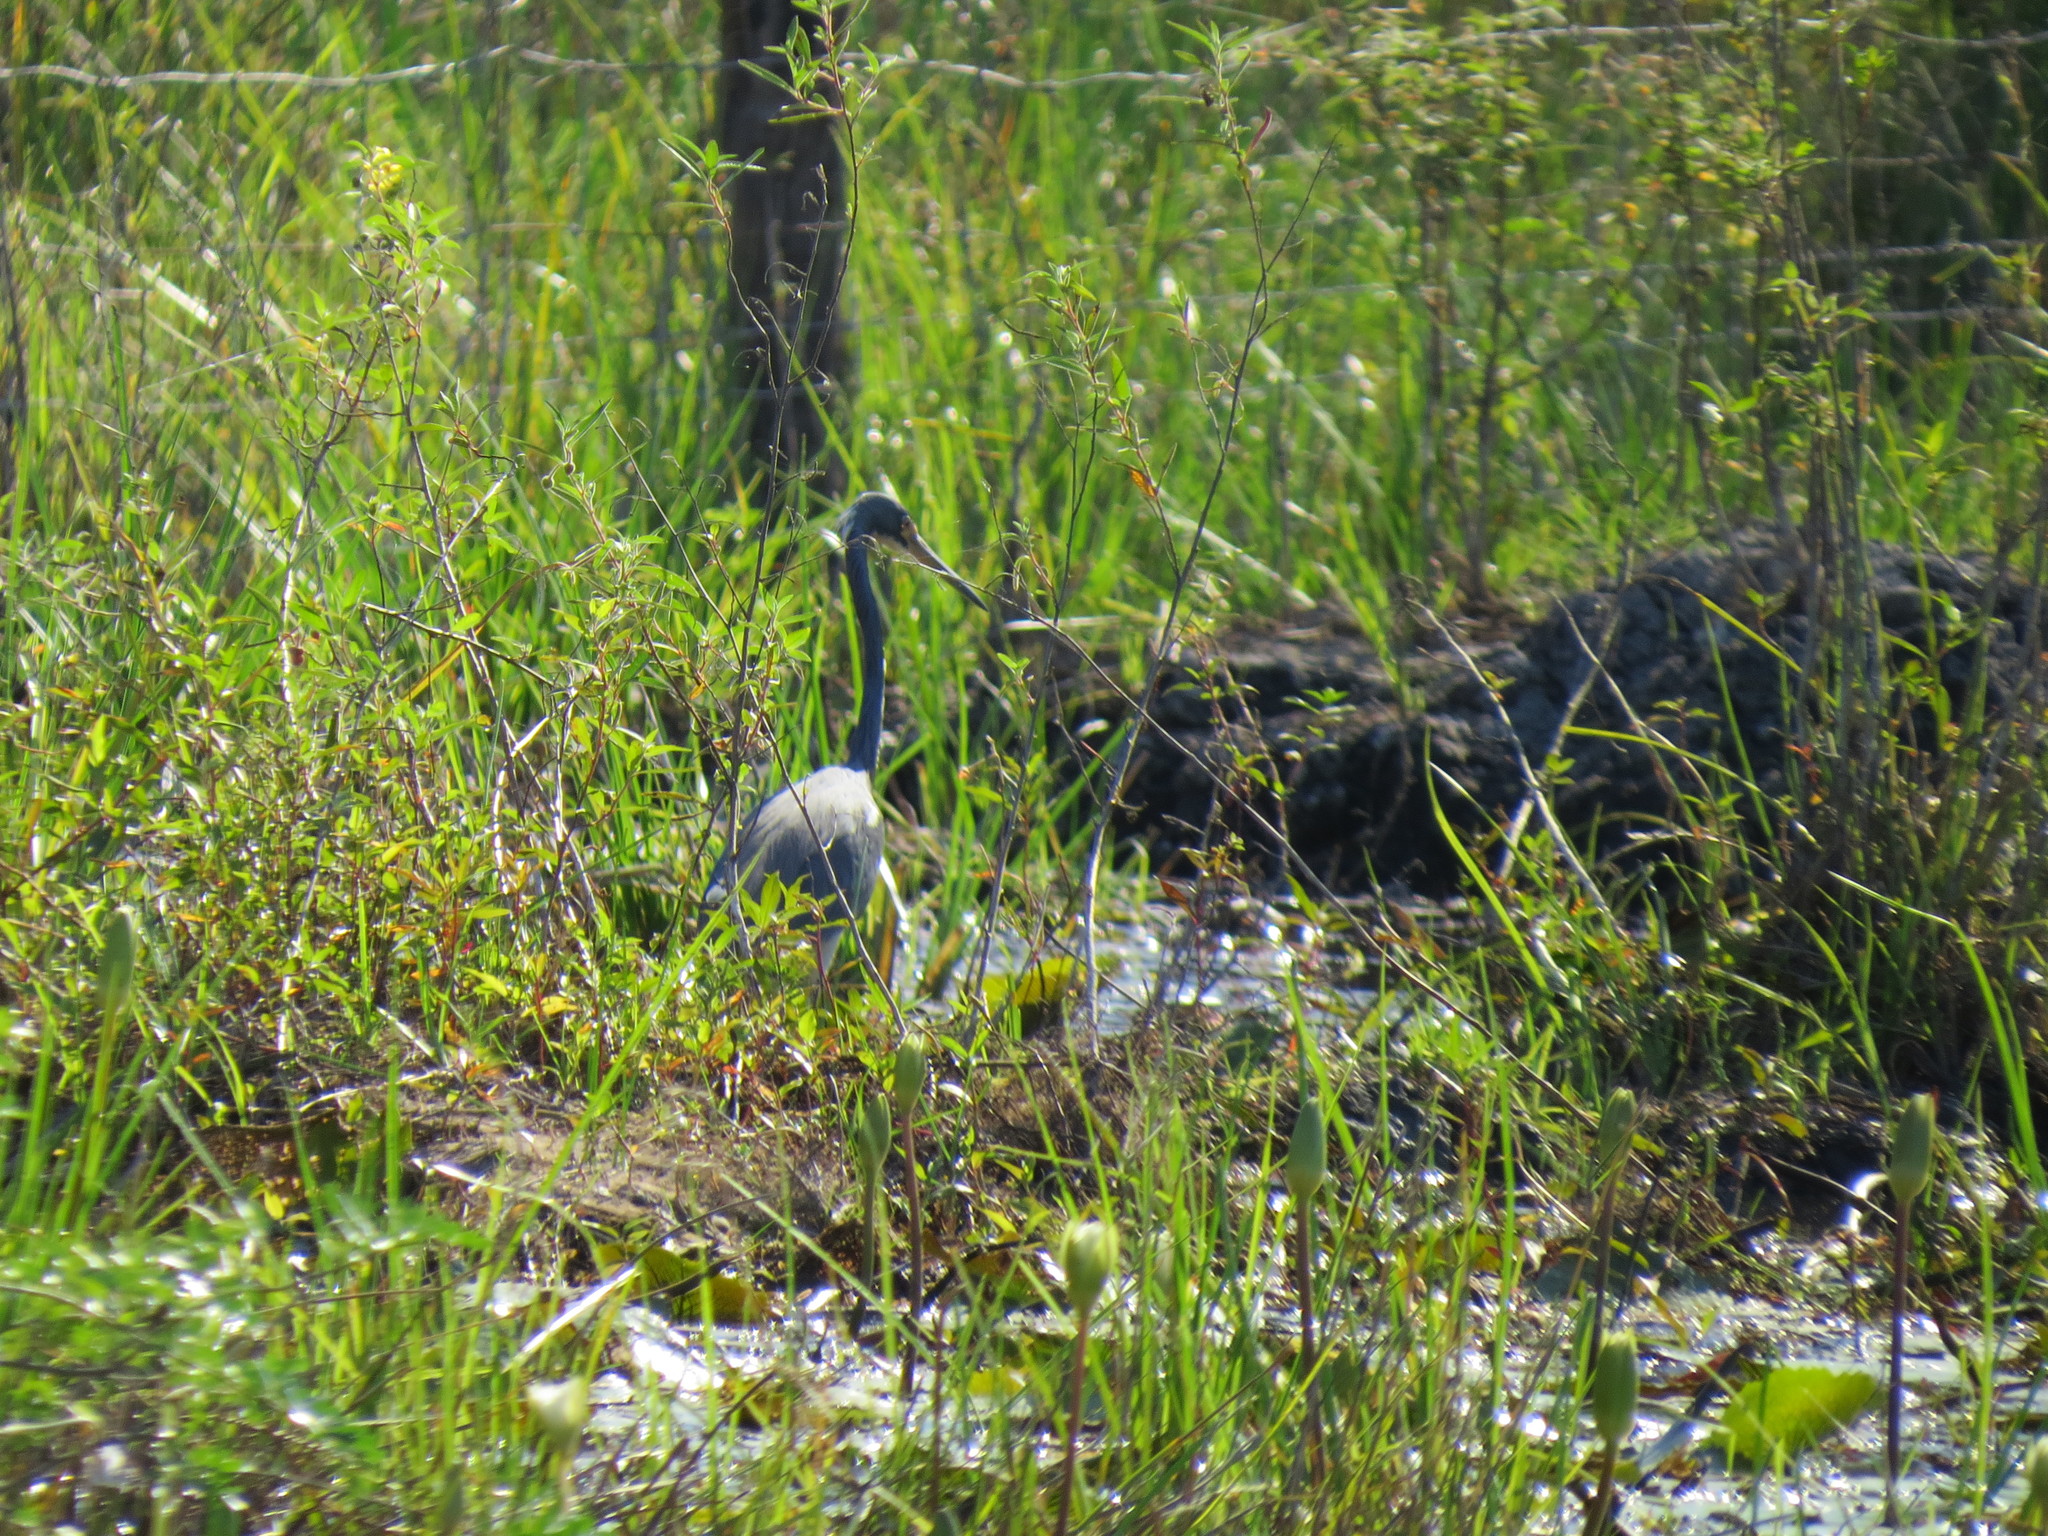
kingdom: Animalia
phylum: Chordata
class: Aves
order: Pelecaniformes
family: Ardeidae
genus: Egretta
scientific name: Egretta tricolor
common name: Tricolored heron
